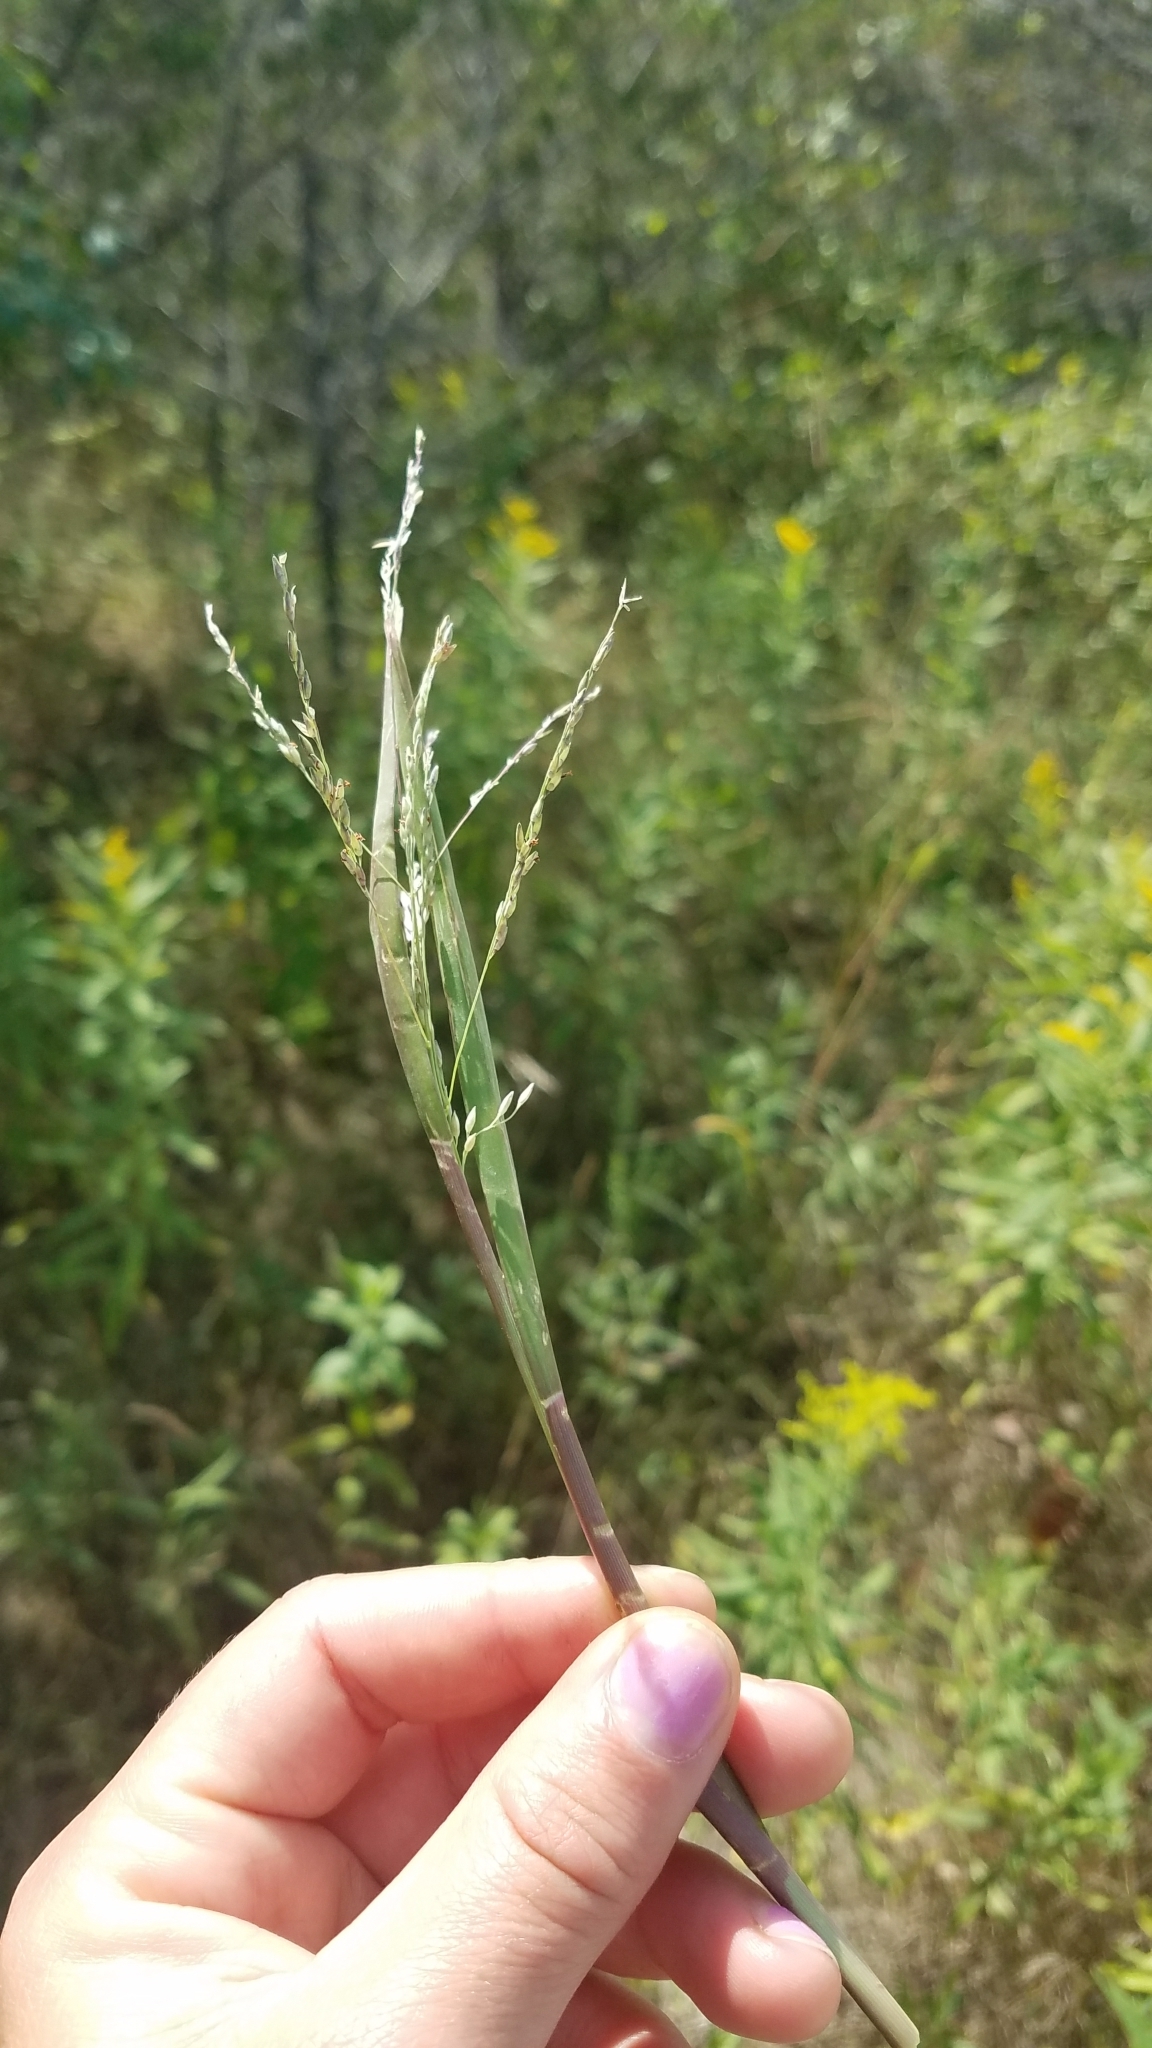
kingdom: Plantae
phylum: Tracheophyta
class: Liliopsida
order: Poales
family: Poaceae
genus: Panicum
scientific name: Panicum dichotomiflorum
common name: Autumn millet
